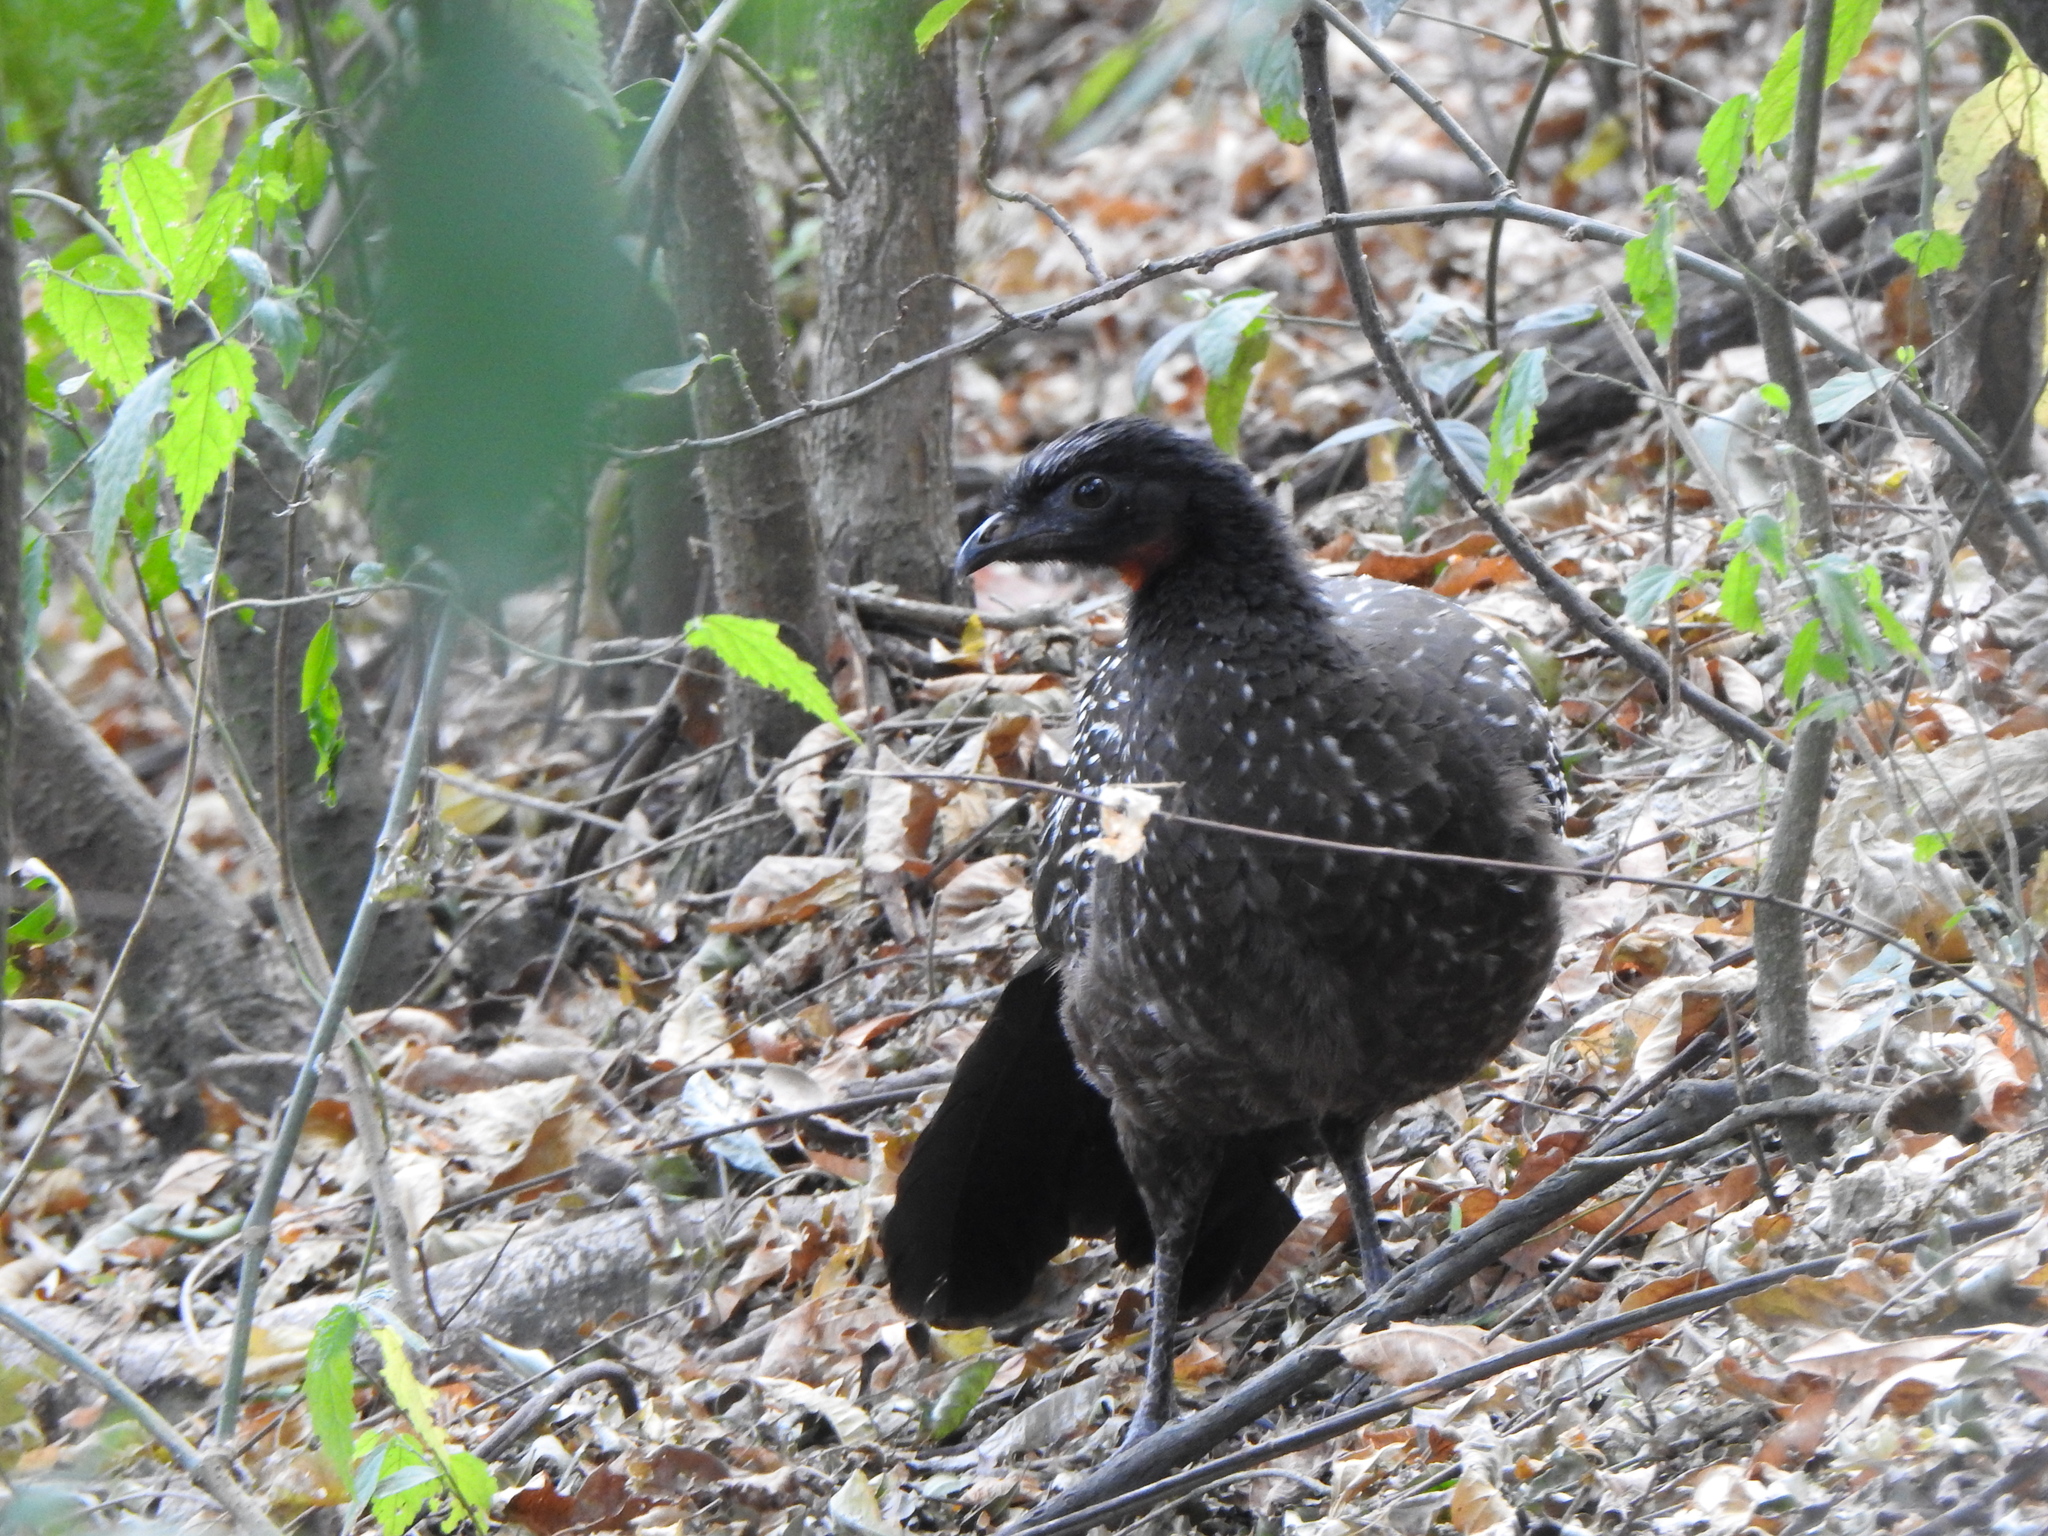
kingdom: Animalia
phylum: Chordata
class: Aves
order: Galliformes
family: Cracidae
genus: Penelope
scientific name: Penelope bridgesi
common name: Yungas guan
